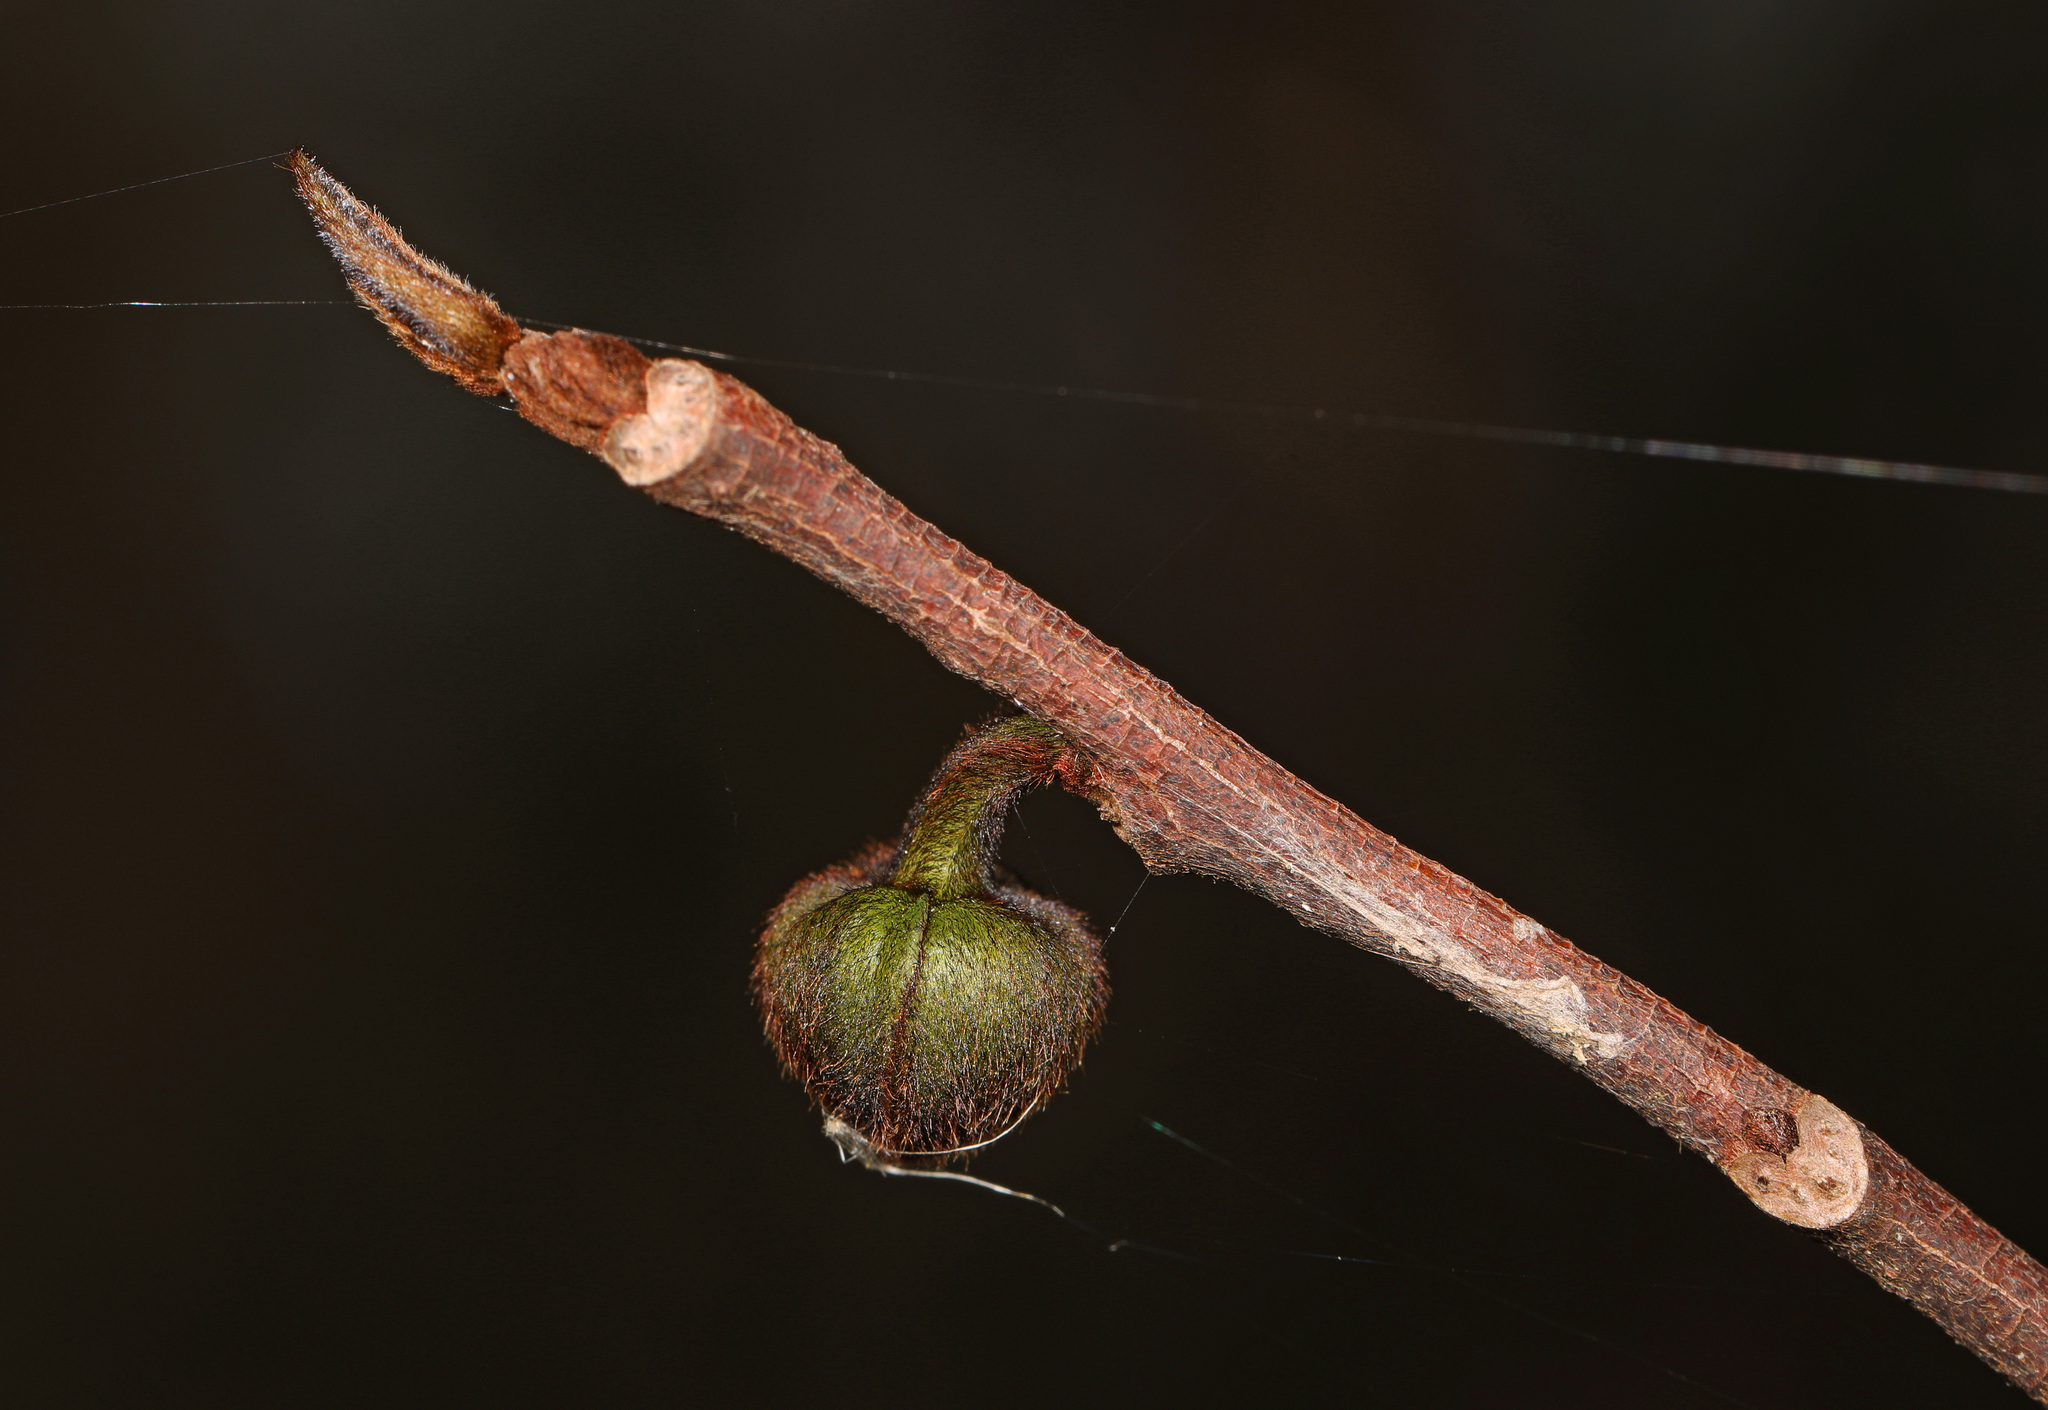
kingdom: Plantae
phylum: Tracheophyta
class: Magnoliopsida
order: Magnoliales
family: Annonaceae
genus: Asimina
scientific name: Asimina triloba
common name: Dog-banana
